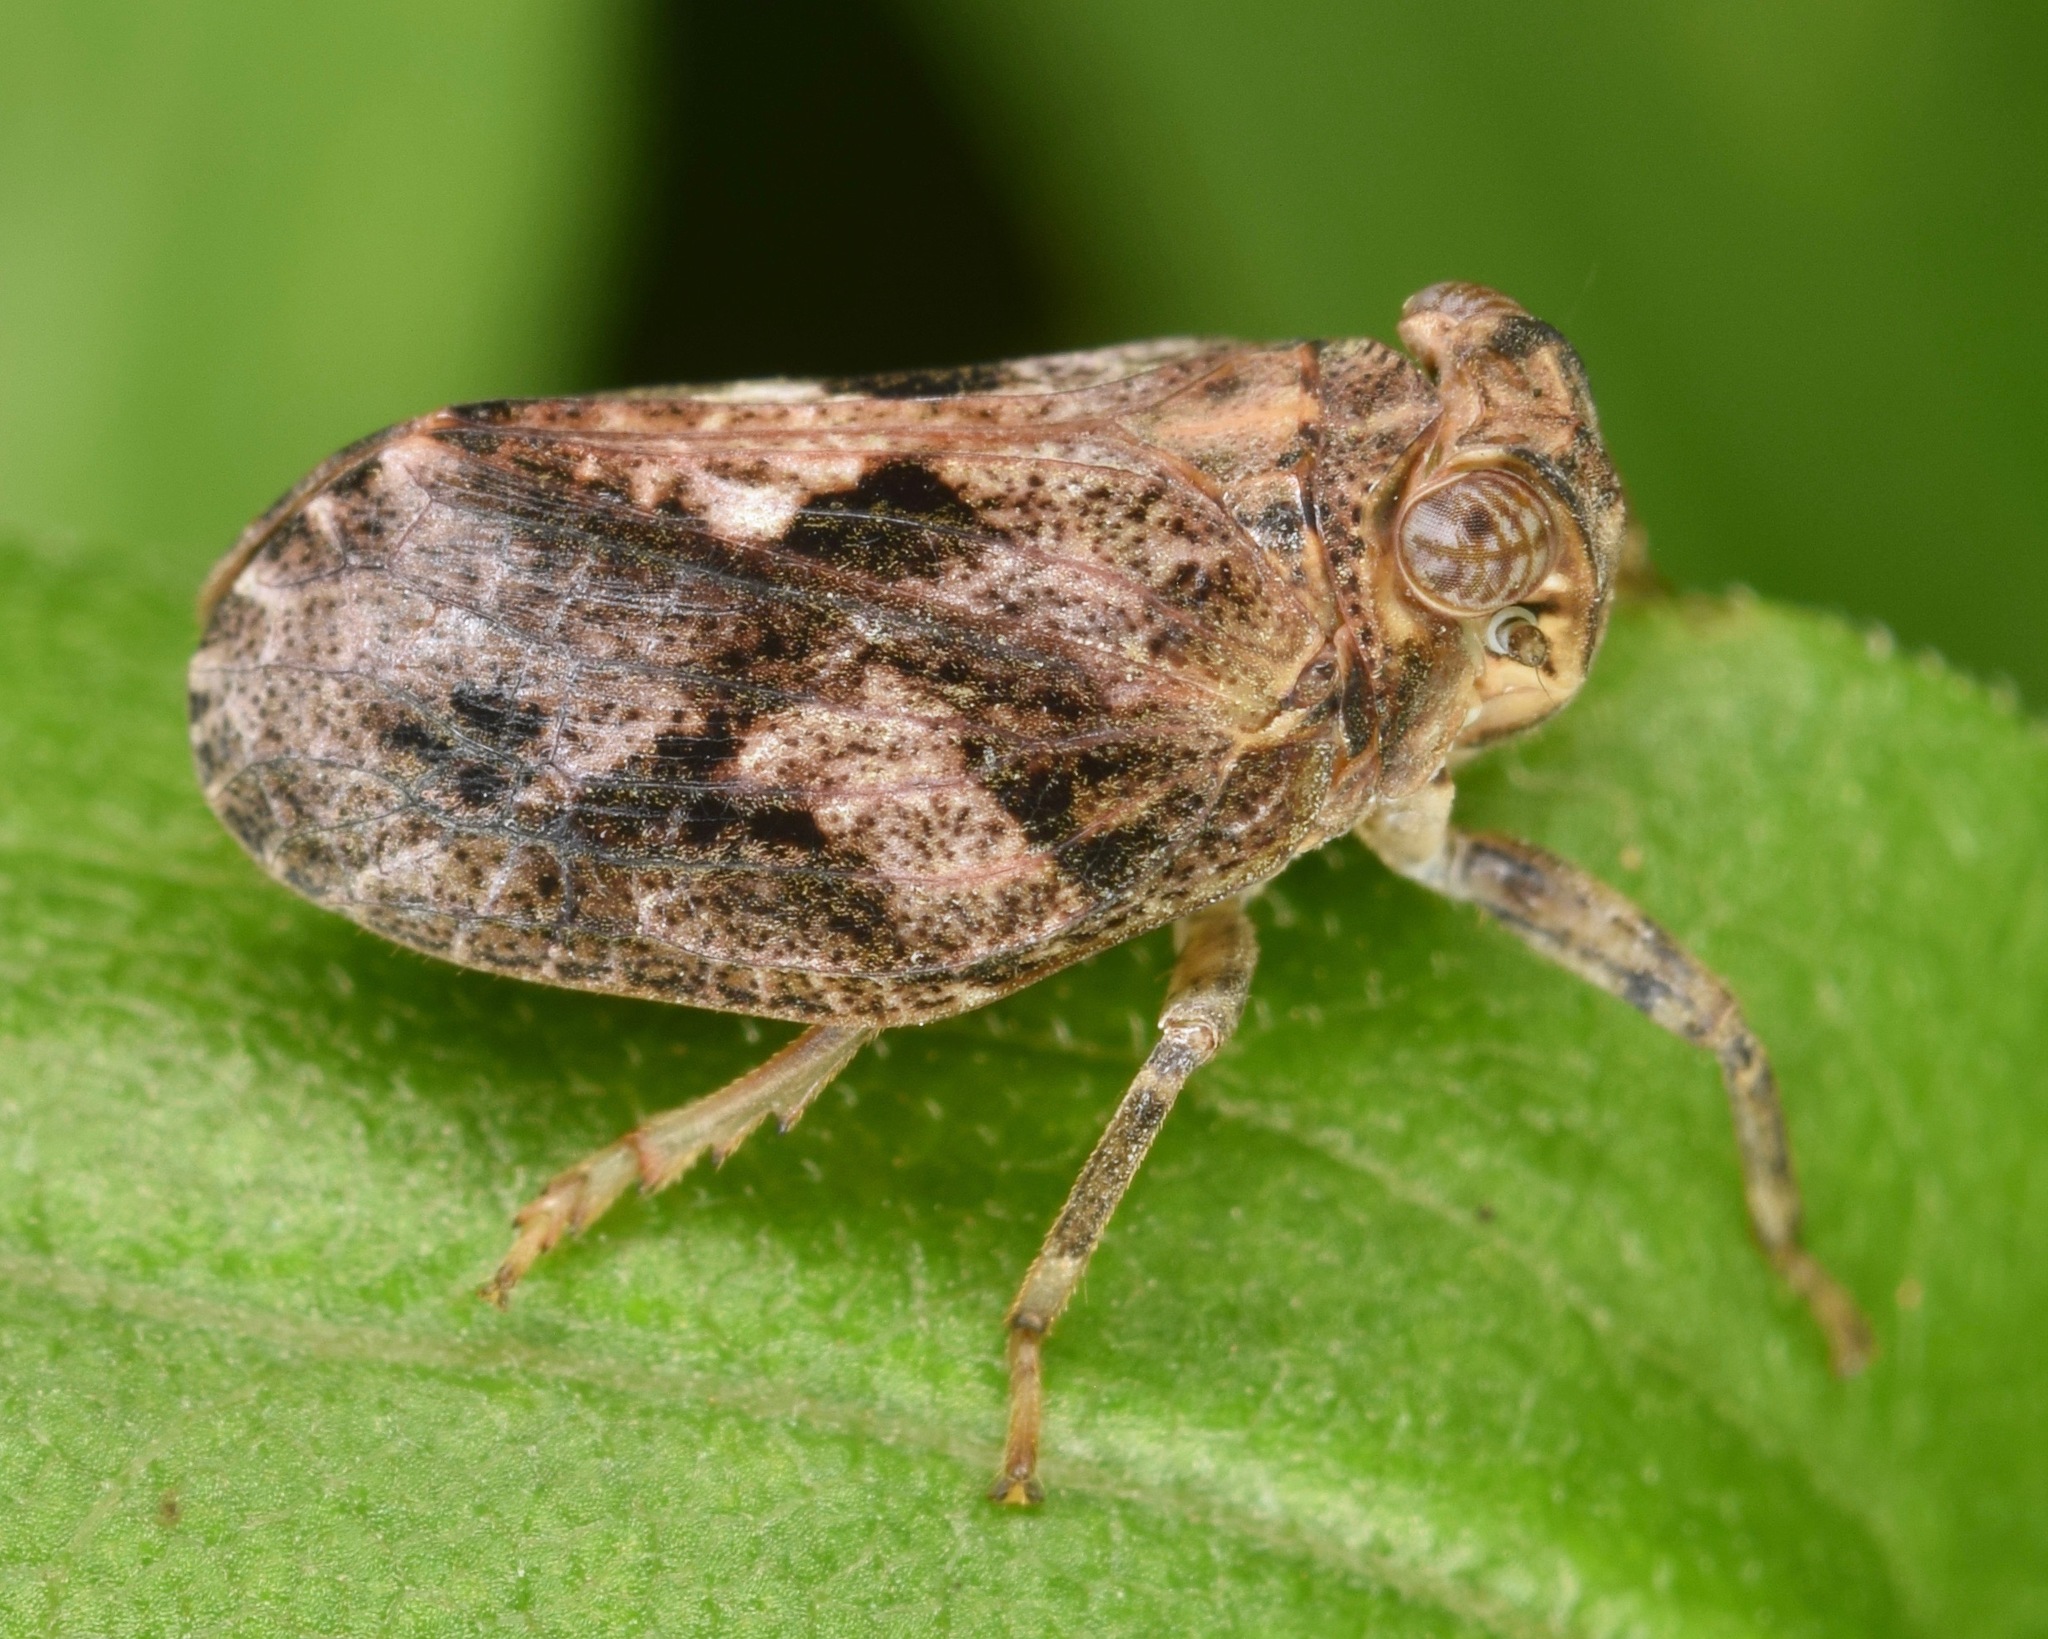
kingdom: Animalia
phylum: Arthropoda
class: Insecta
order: Hemiptera
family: Issidae
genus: Thionia
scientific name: Thionia elliptica
